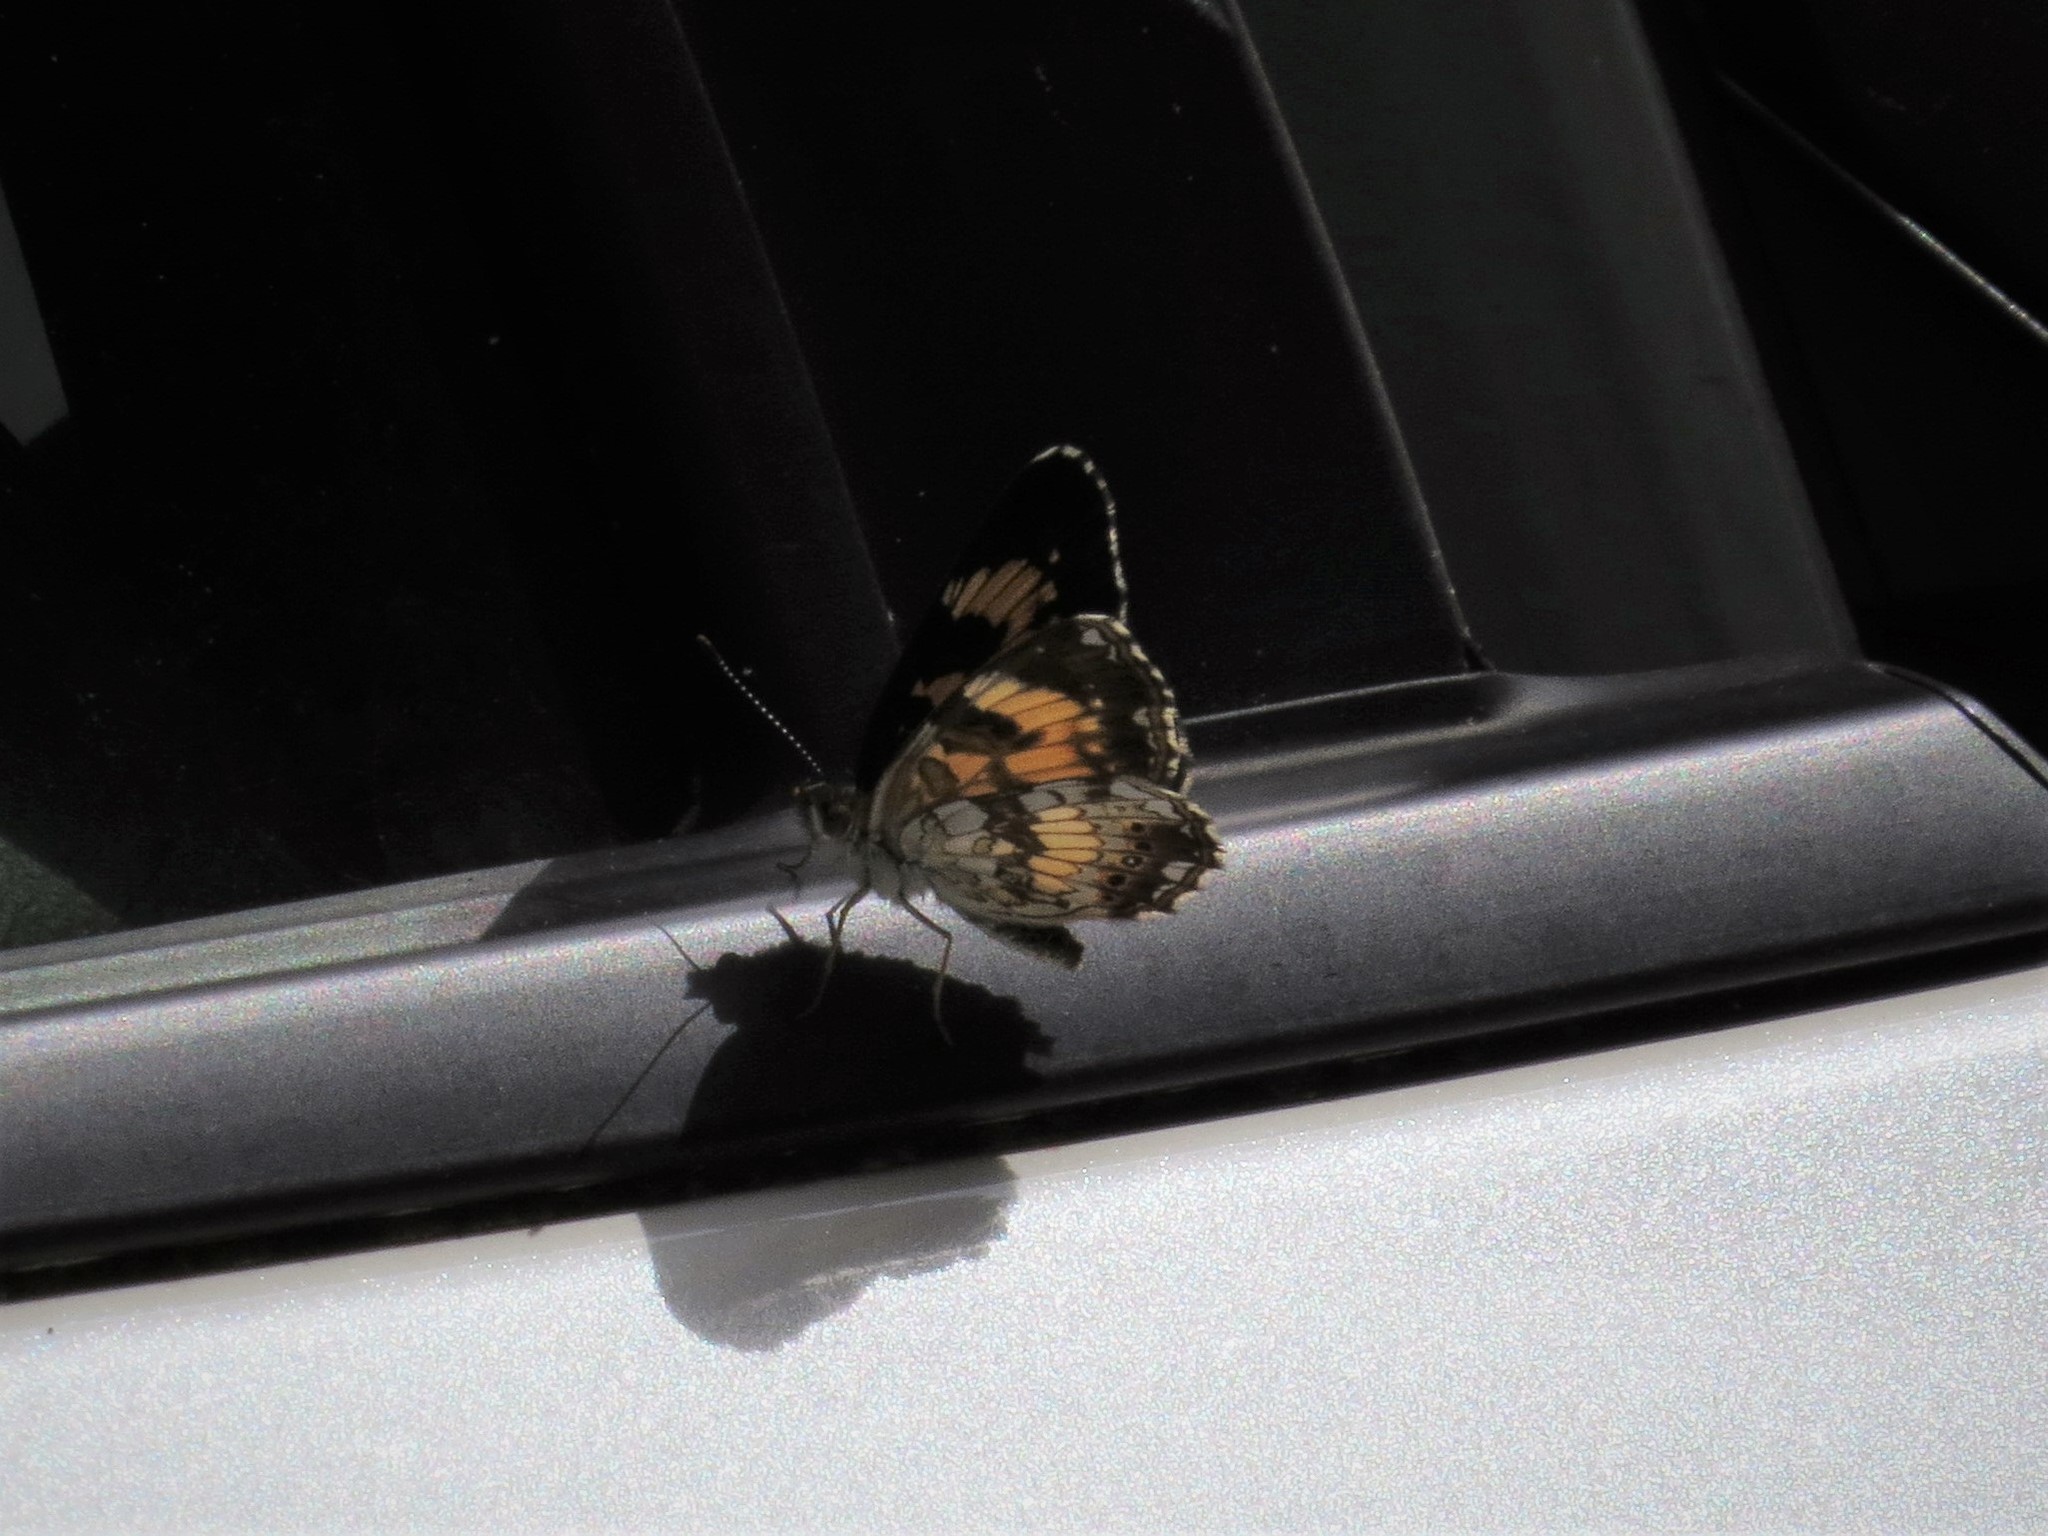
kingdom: Animalia
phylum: Arthropoda
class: Insecta
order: Lepidoptera
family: Nymphalidae
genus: Chlosyne
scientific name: Chlosyne nycteis
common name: Silvery checkerspot
